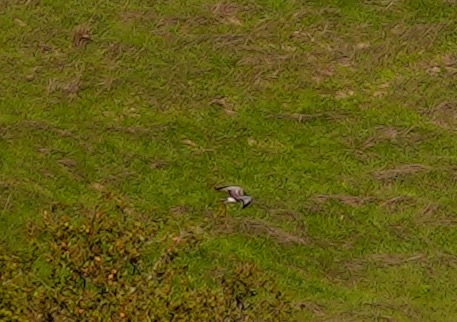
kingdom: Animalia
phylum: Chordata
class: Aves
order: Accipitriformes
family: Accipitridae
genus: Circus
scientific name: Circus cyaneus
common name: Hen harrier
